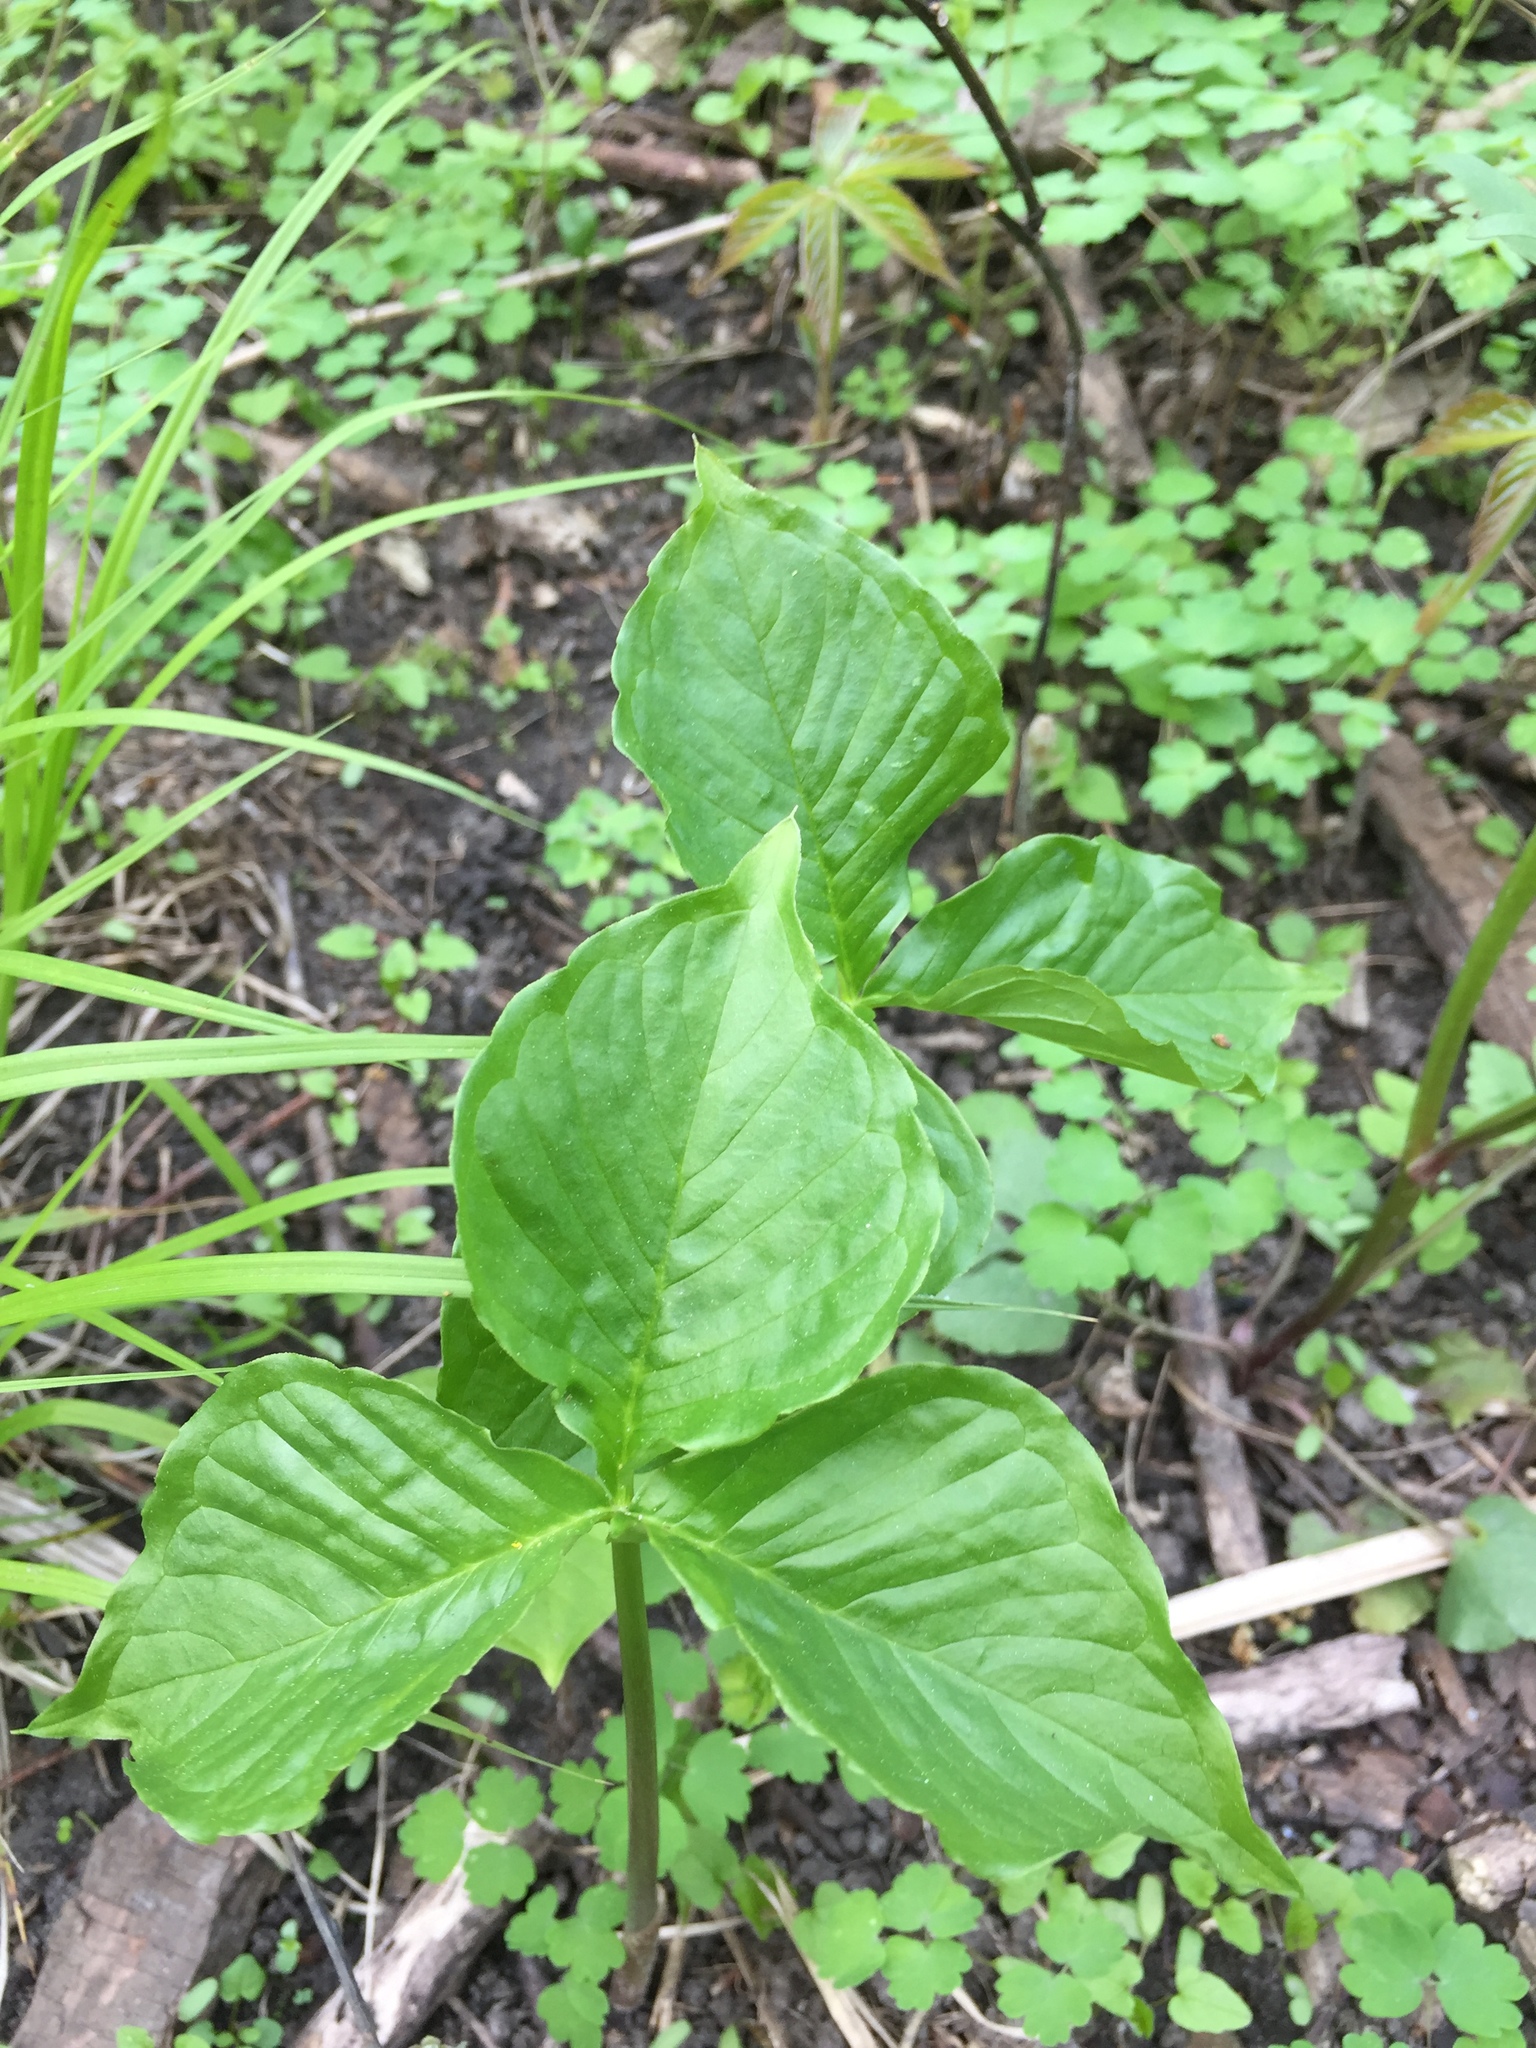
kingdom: Plantae
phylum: Tracheophyta
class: Liliopsida
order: Alismatales
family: Araceae
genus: Arisaema
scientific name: Arisaema triphyllum
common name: Jack-in-the-pulpit
